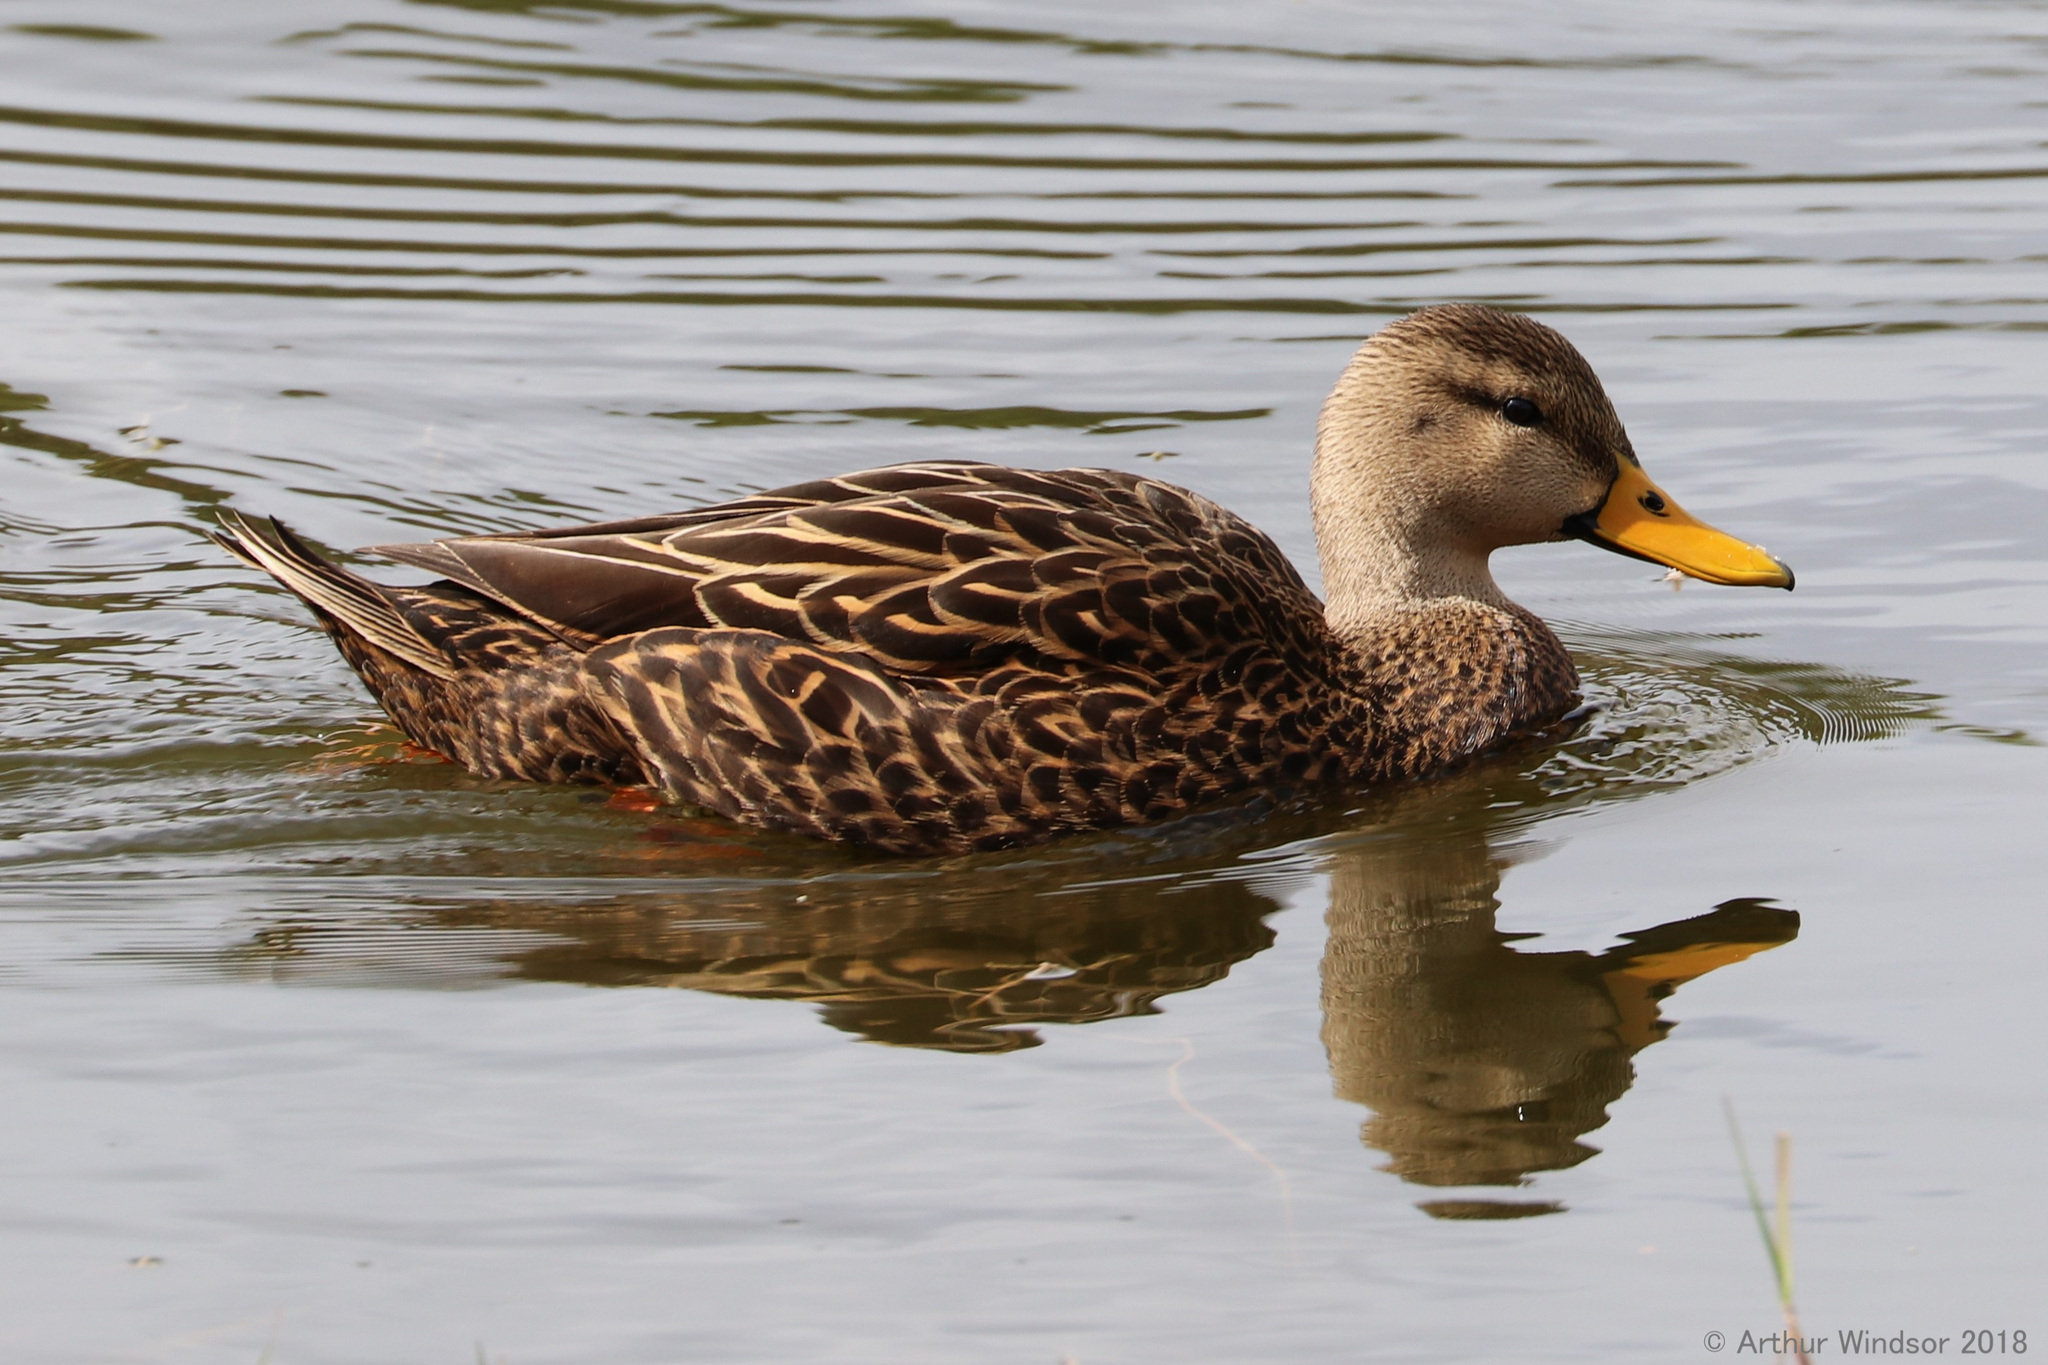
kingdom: Animalia
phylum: Chordata
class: Aves
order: Anseriformes
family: Anatidae
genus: Anas
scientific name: Anas
